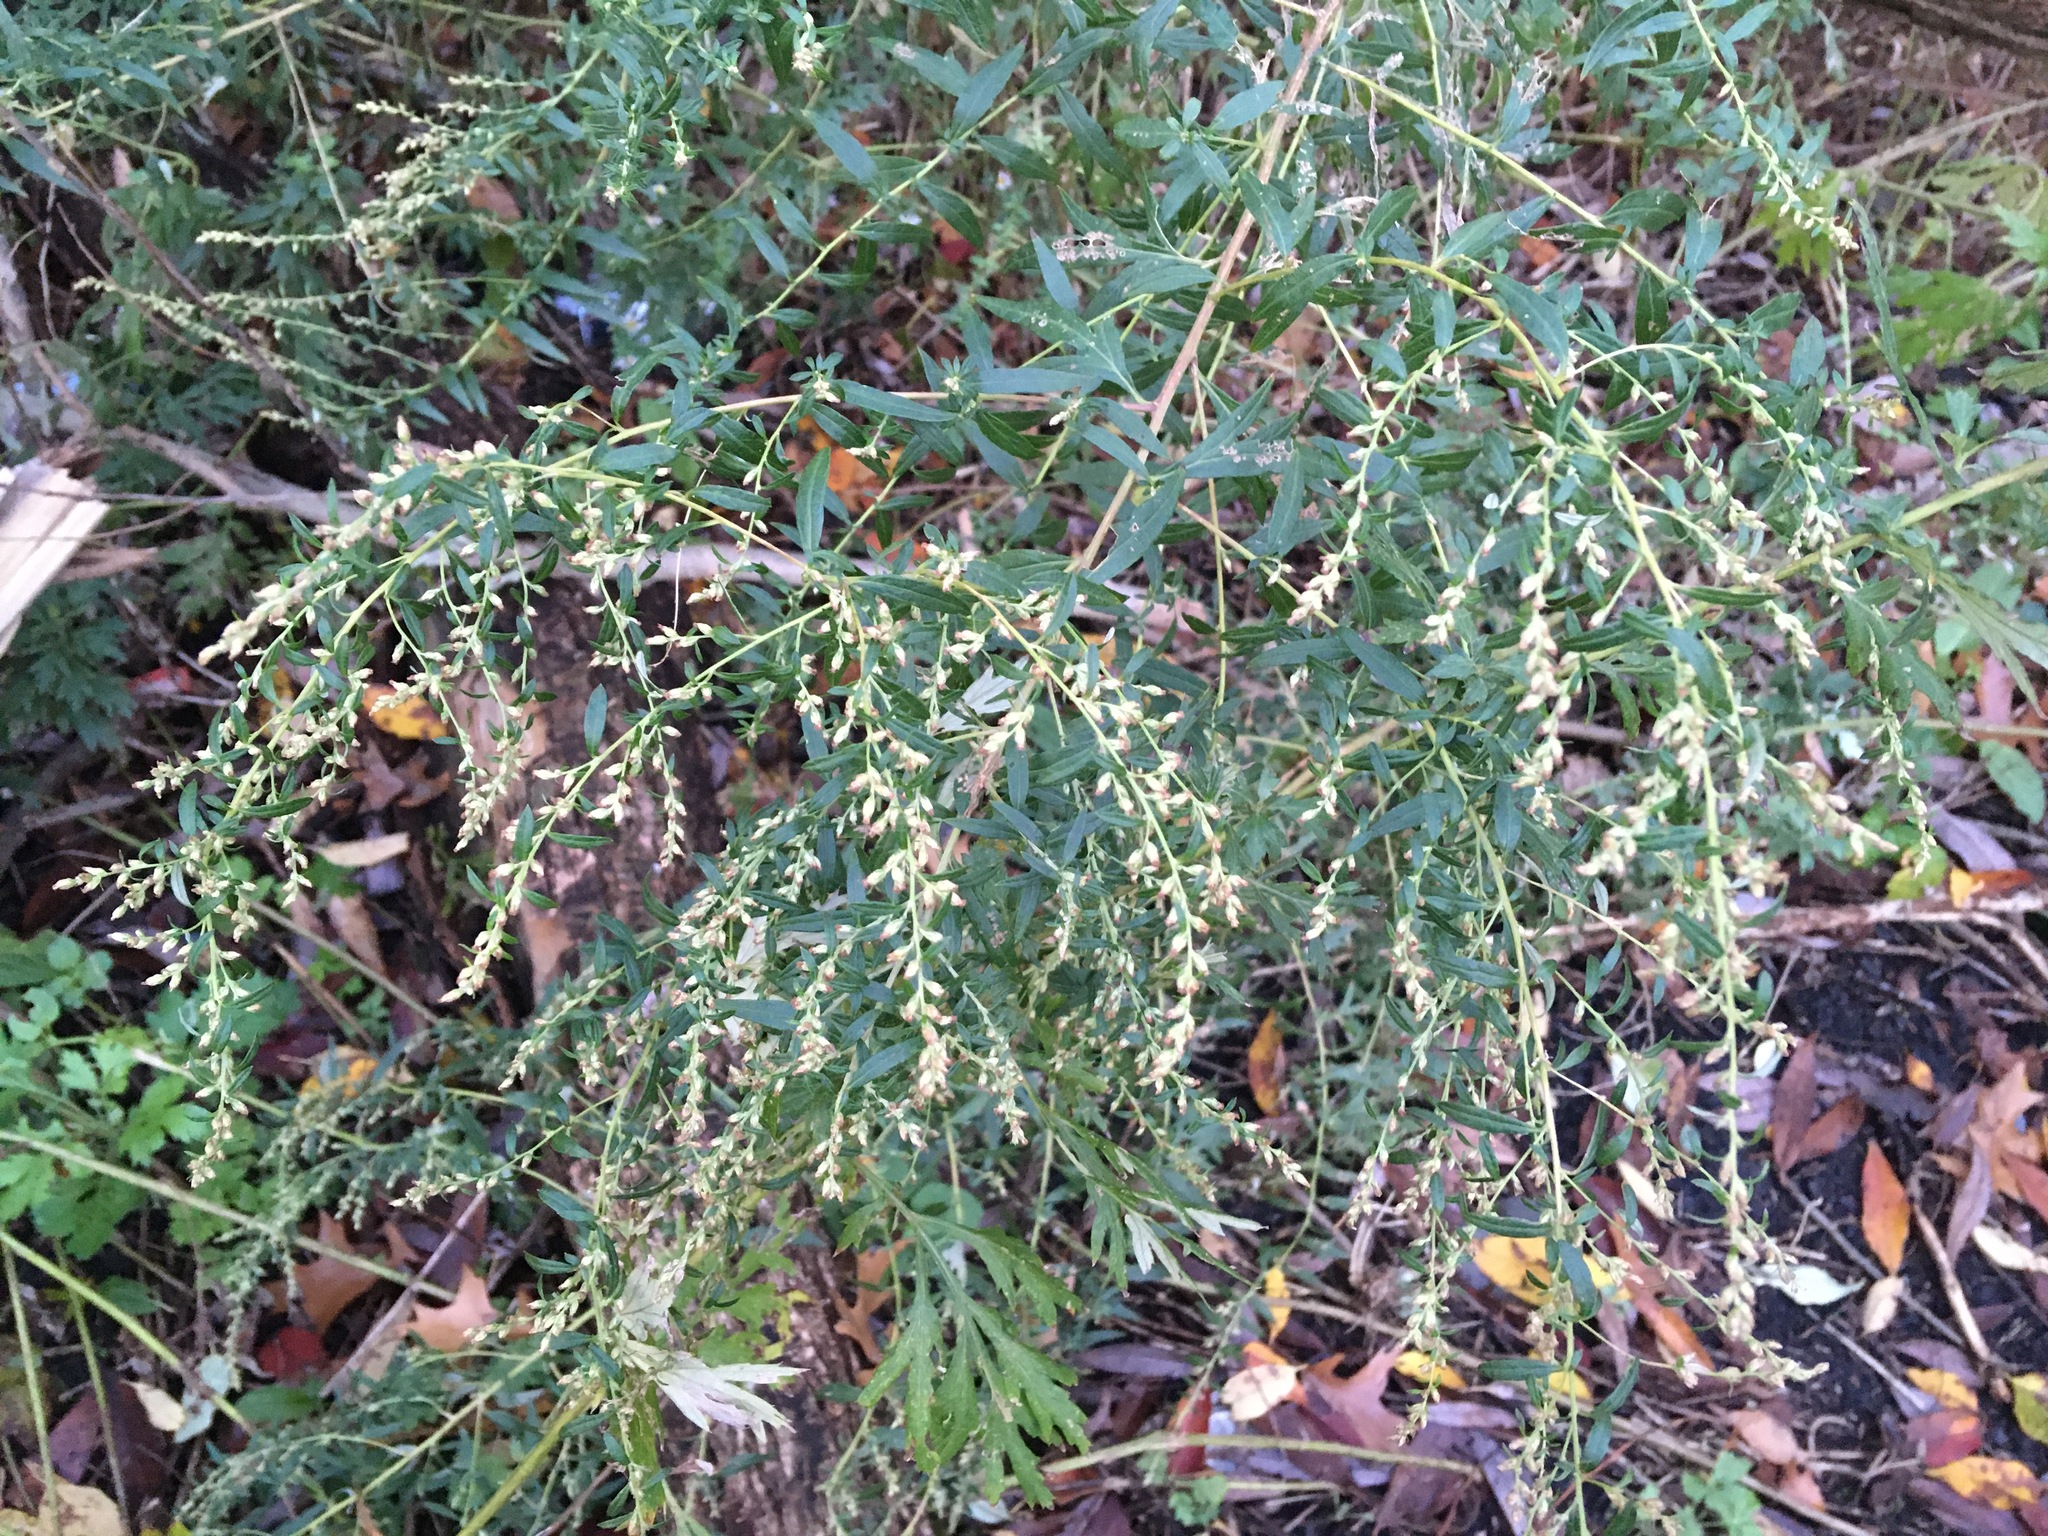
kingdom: Plantae
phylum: Tracheophyta
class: Magnoliopsida
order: Asterales
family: Asteraceae
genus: Artemisia
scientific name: Artemisia vulgaris
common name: Mugwort
